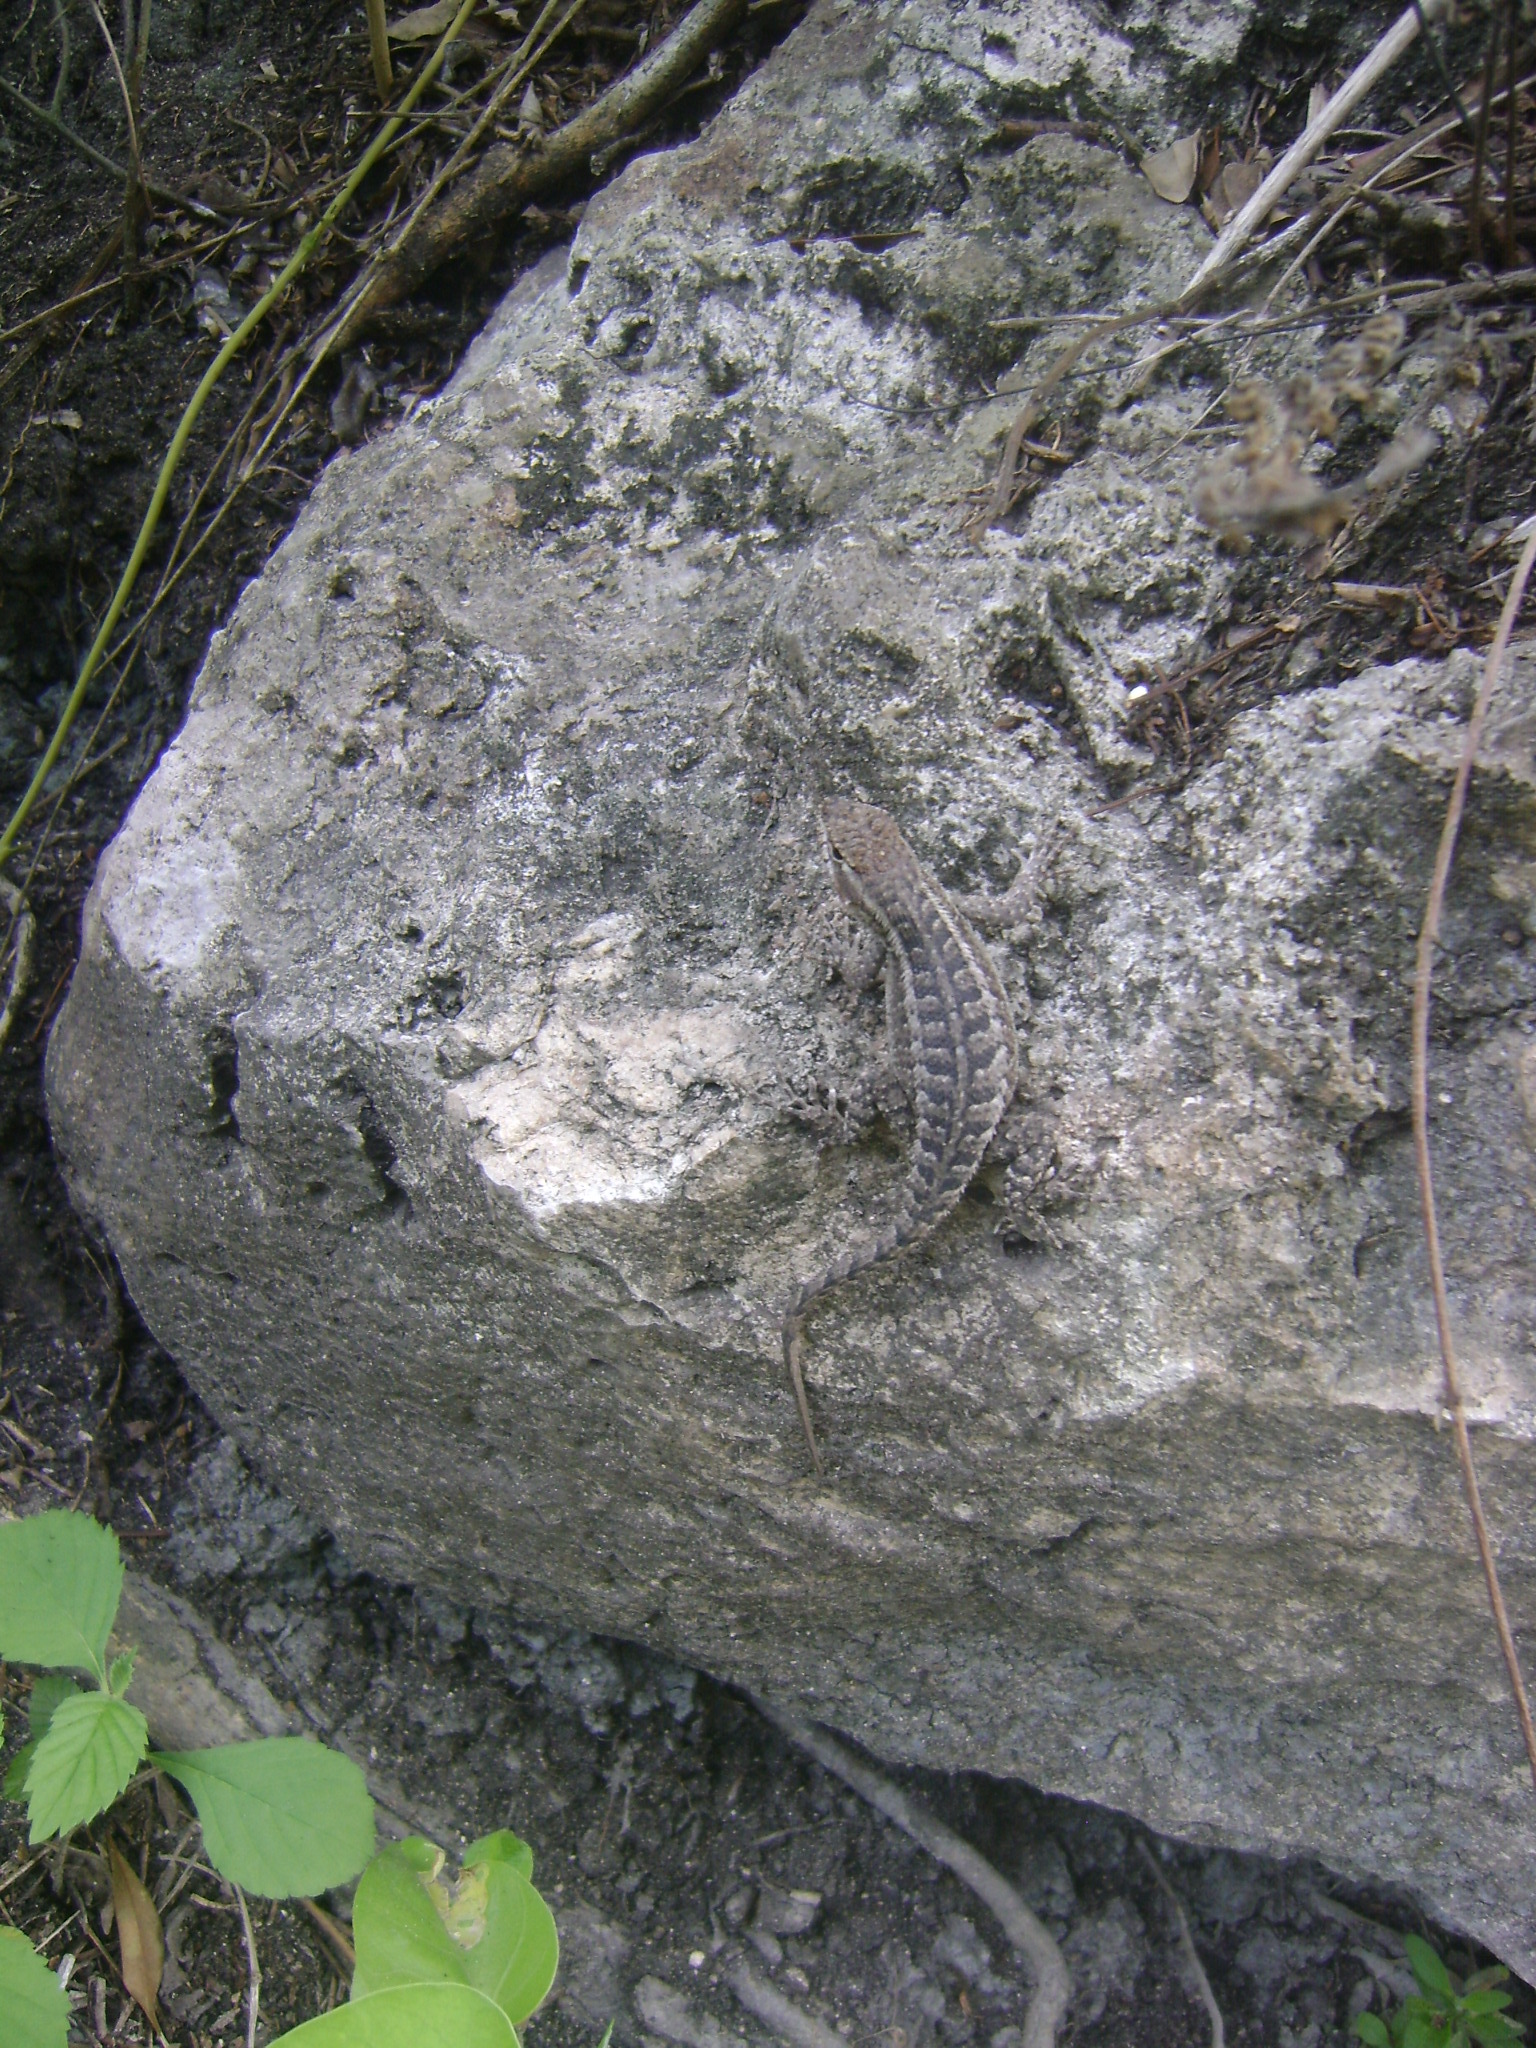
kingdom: Animalia
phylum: Chordata
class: Squamata
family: Phrynosomatidae
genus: Sceloporus
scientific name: Sceloporus variabilis
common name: Rosebelly lizard
